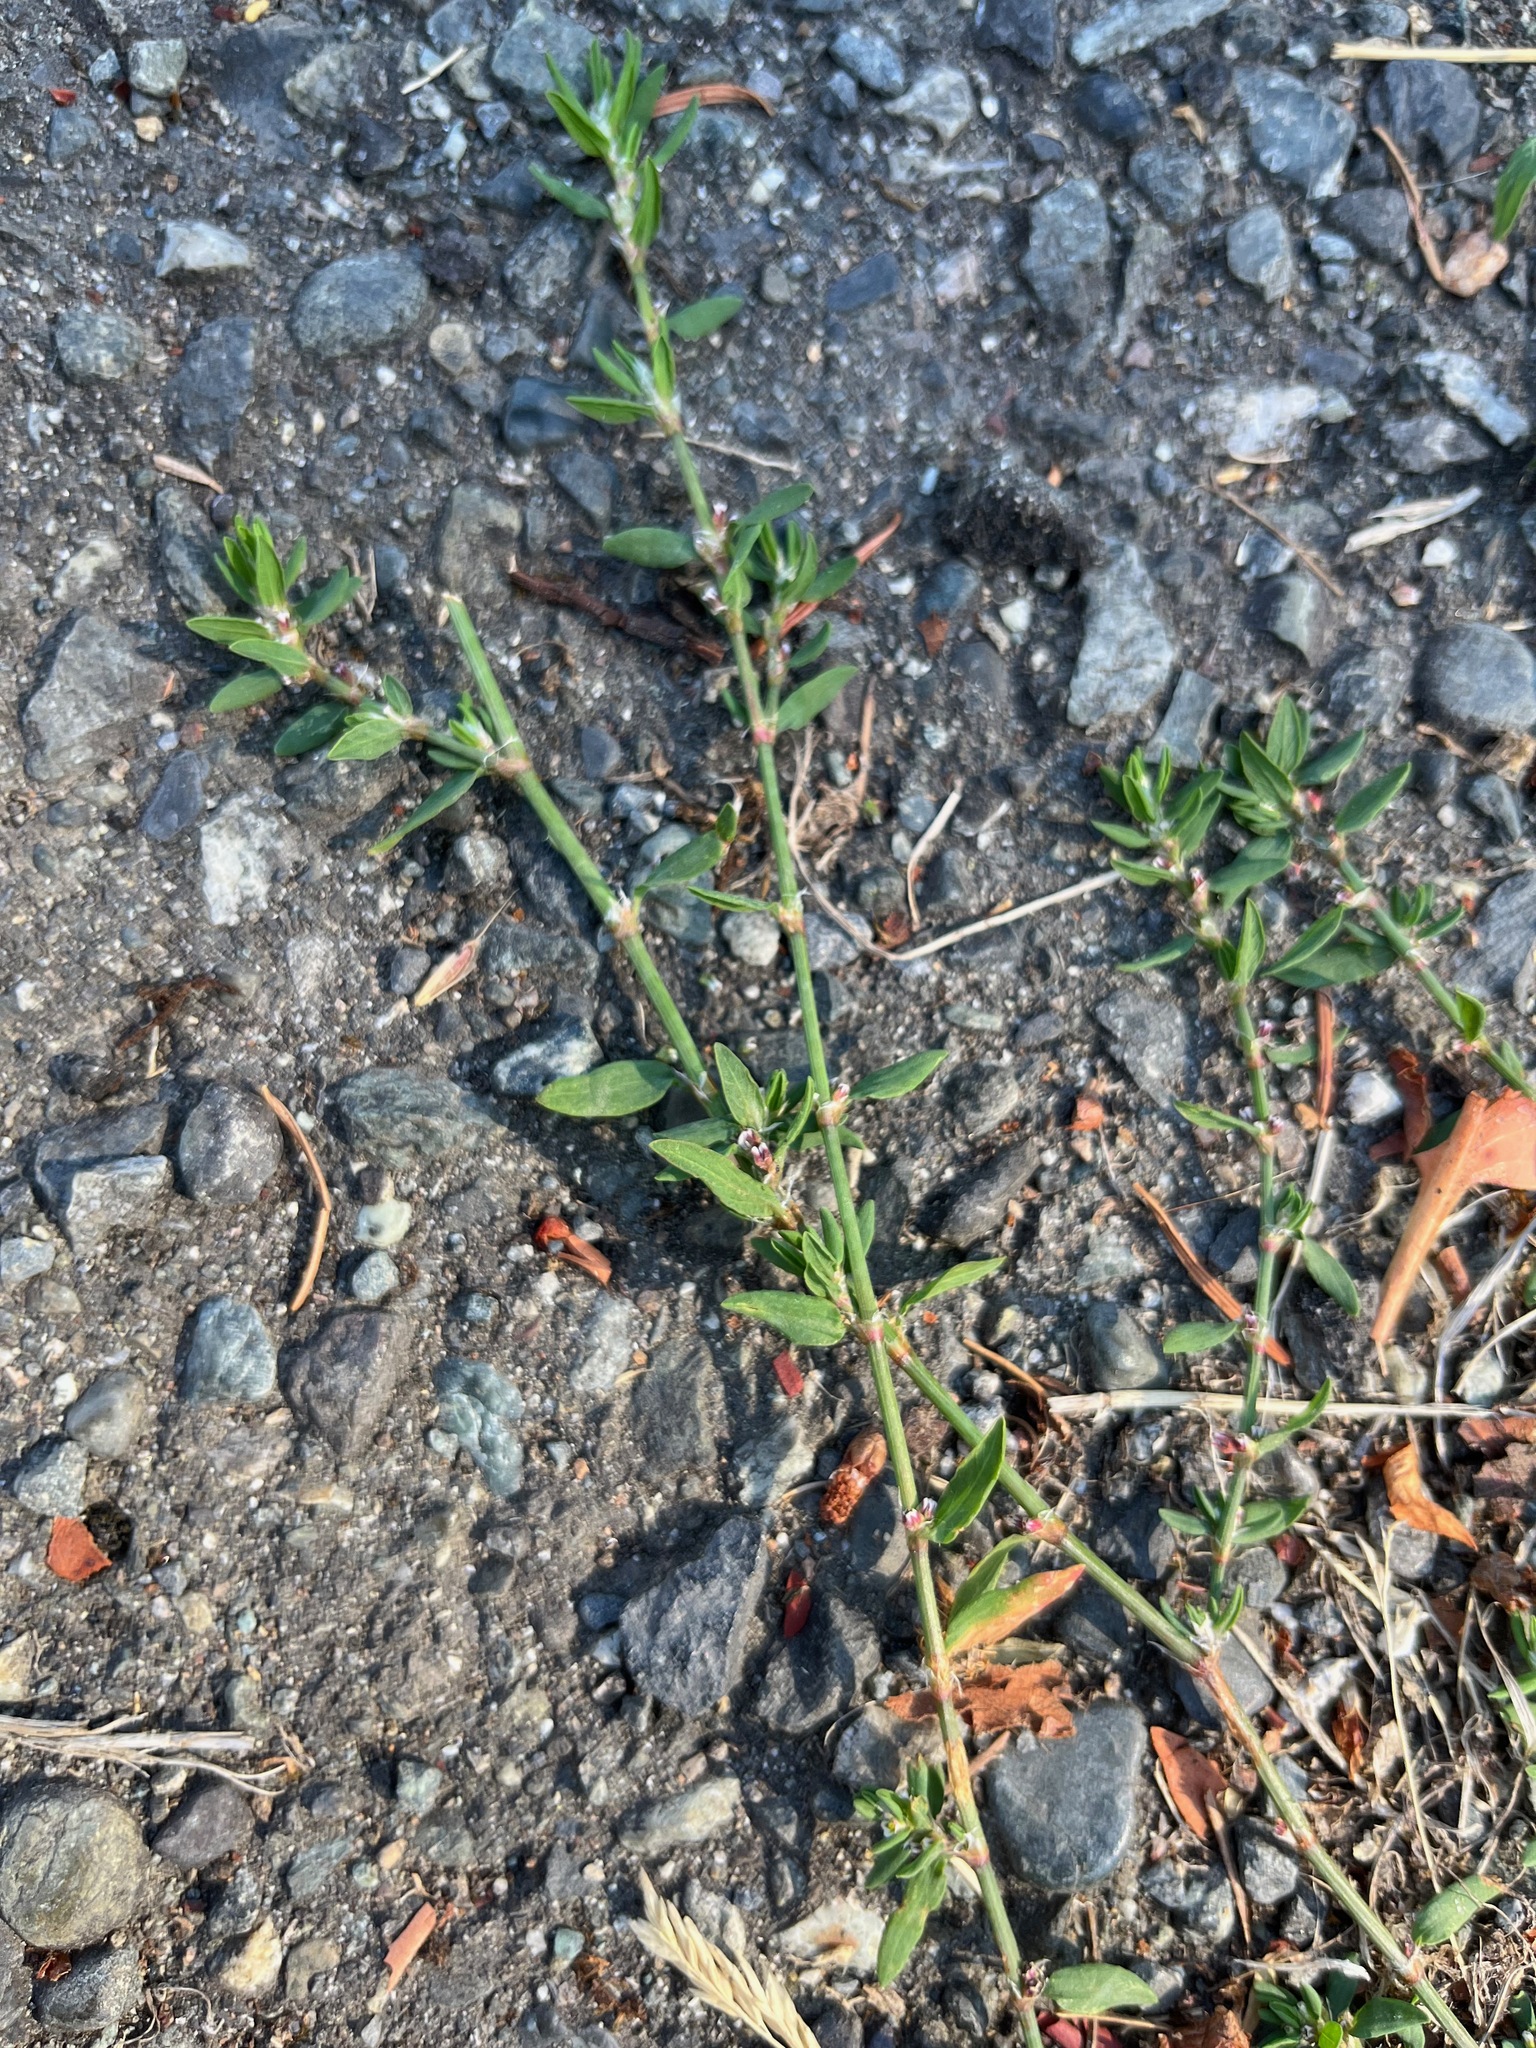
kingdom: Plantae
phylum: Tracheophyta
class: Magnoliopsida
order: Caryophyllales
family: Polygonaceae
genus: Polygonum
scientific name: Polygonum aviculare
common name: Prostrate knotweed
